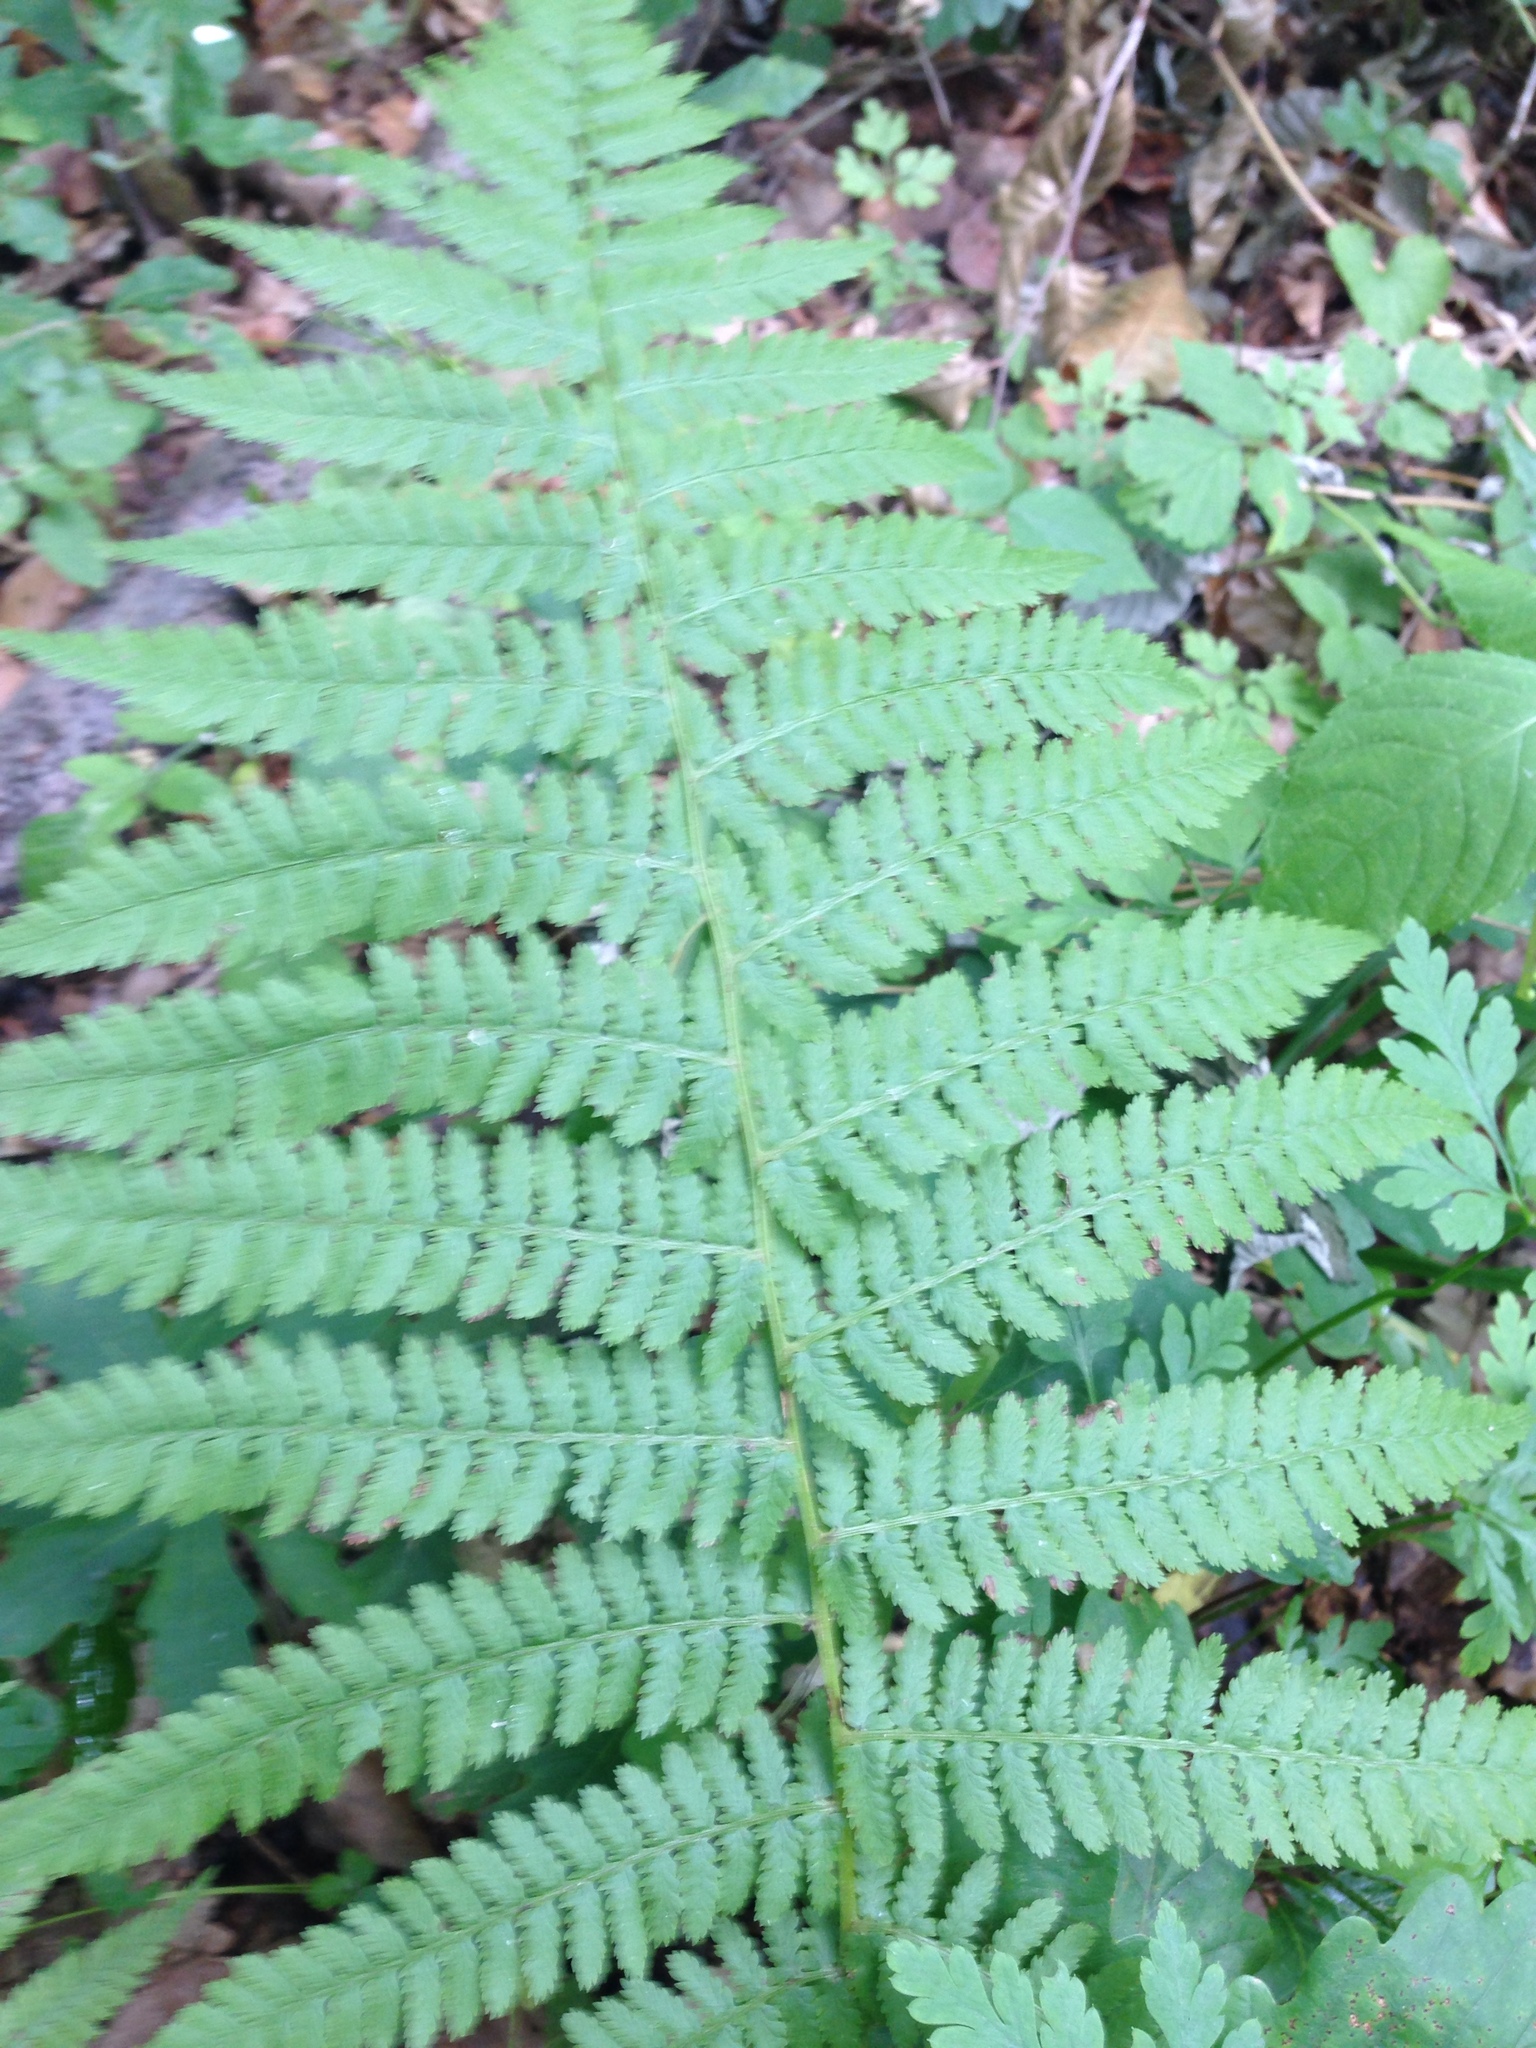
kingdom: Plantae
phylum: Tracheophyta
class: Polypodiopsida
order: Polypodiales
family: Athyriaceae
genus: Athyrium
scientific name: Athyrium filix-femina
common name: Lady fern
